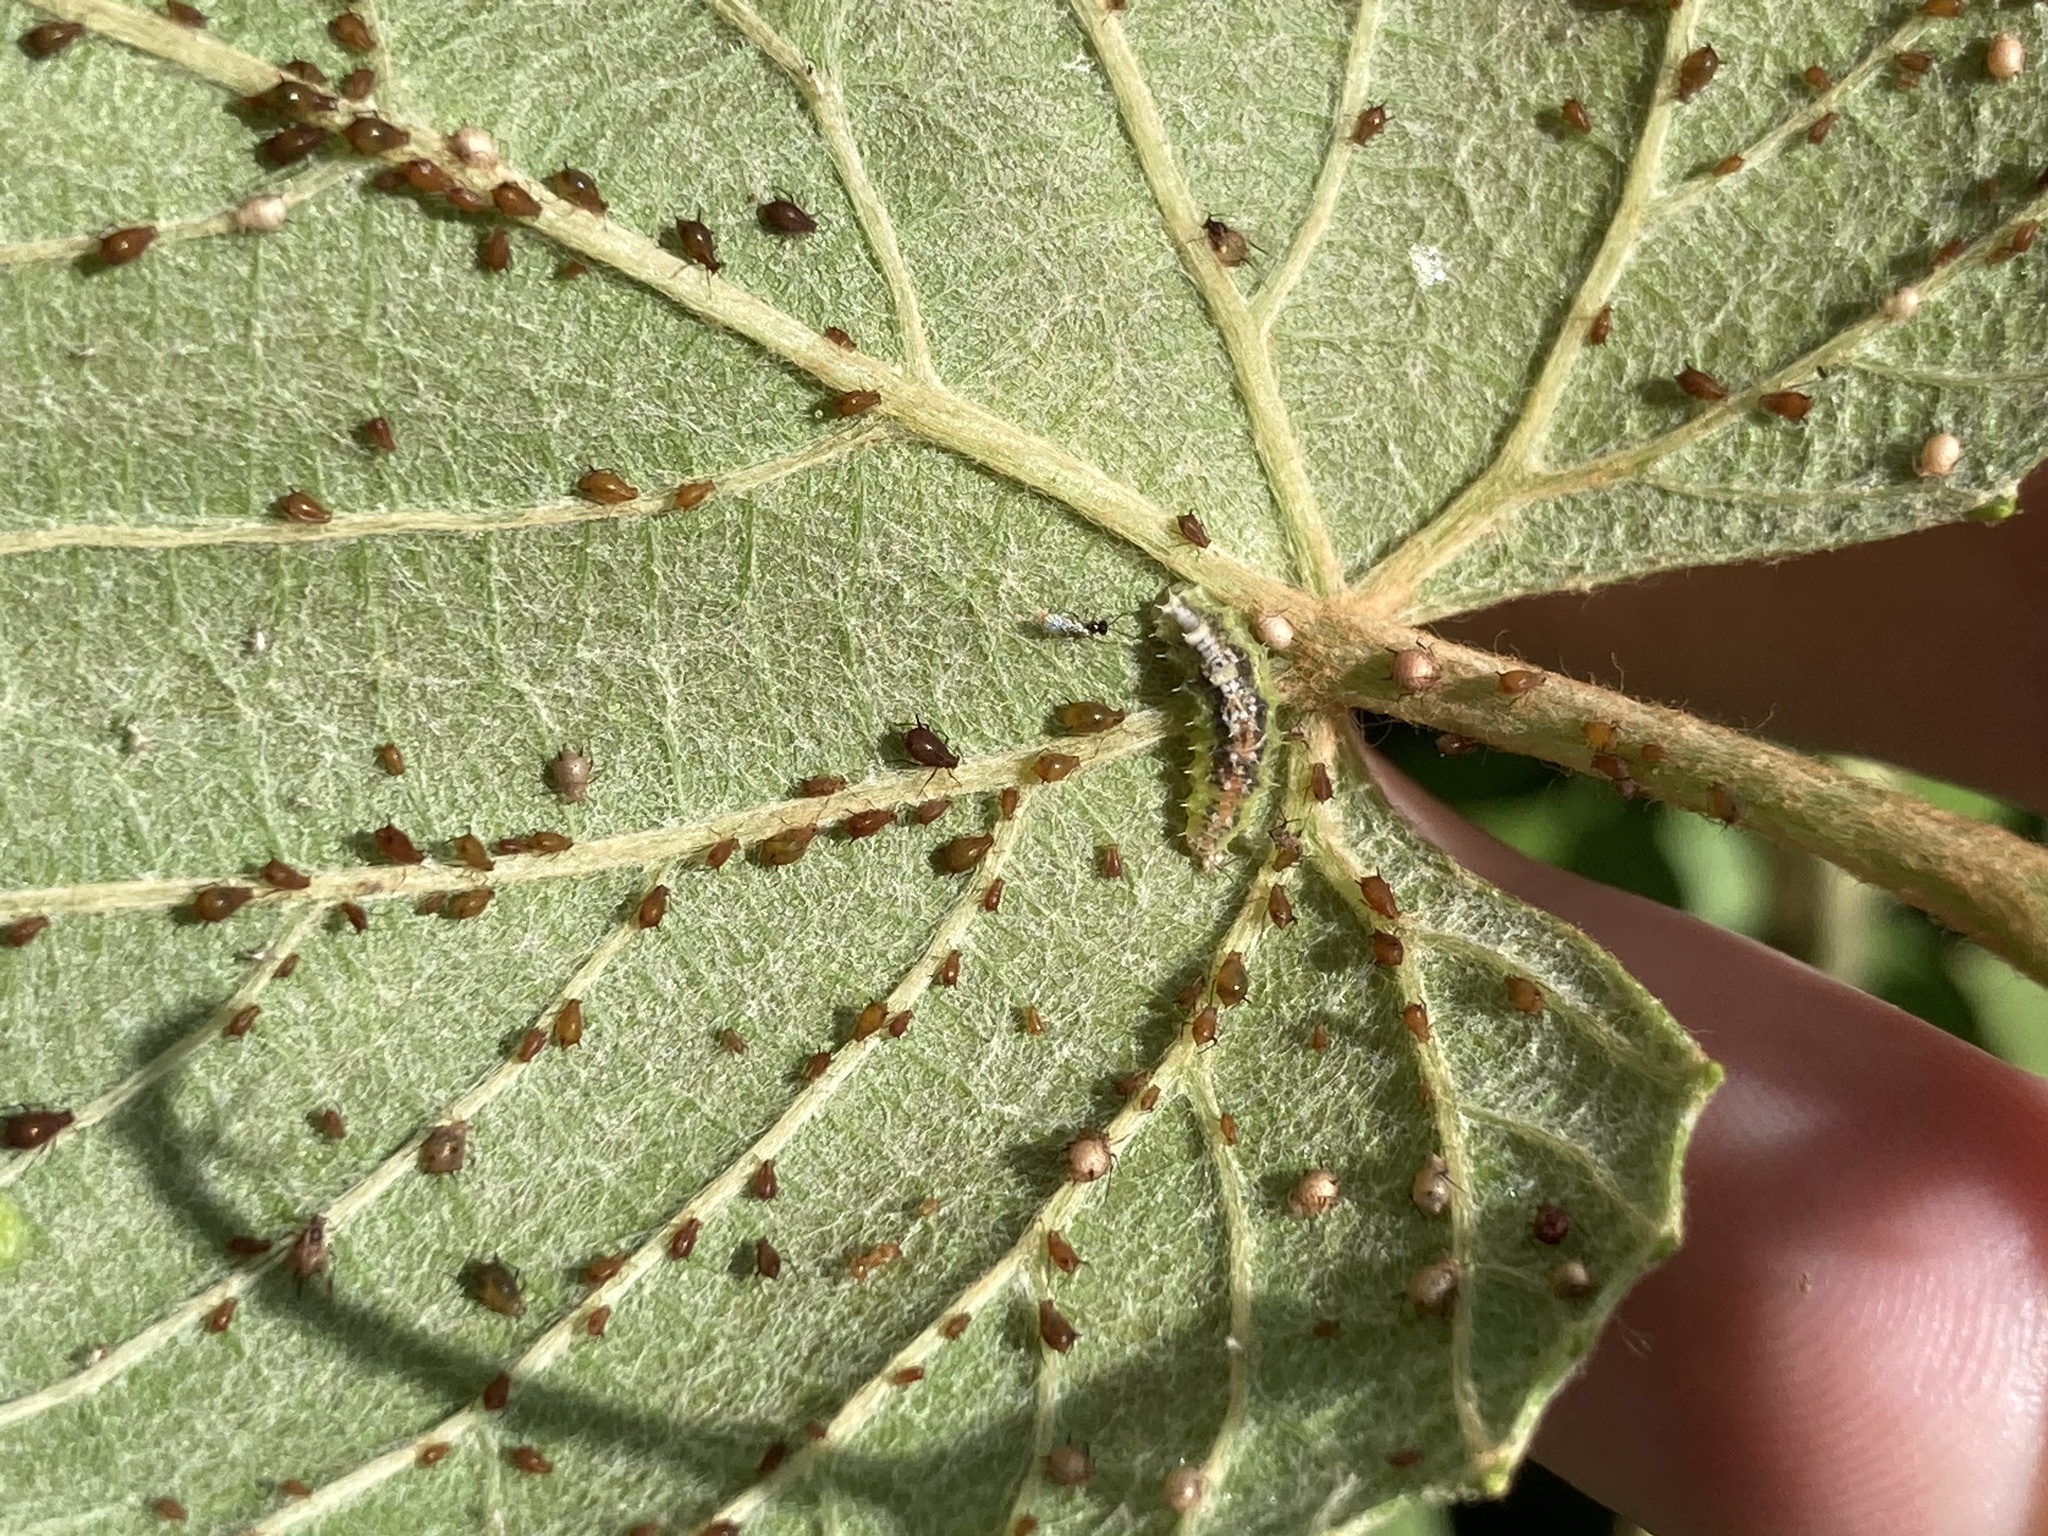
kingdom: Animalia
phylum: Arthropoda
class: Insecta
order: Diptera
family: Syrphidae
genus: Dioprosopa
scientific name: Dioprosopa clavatus
